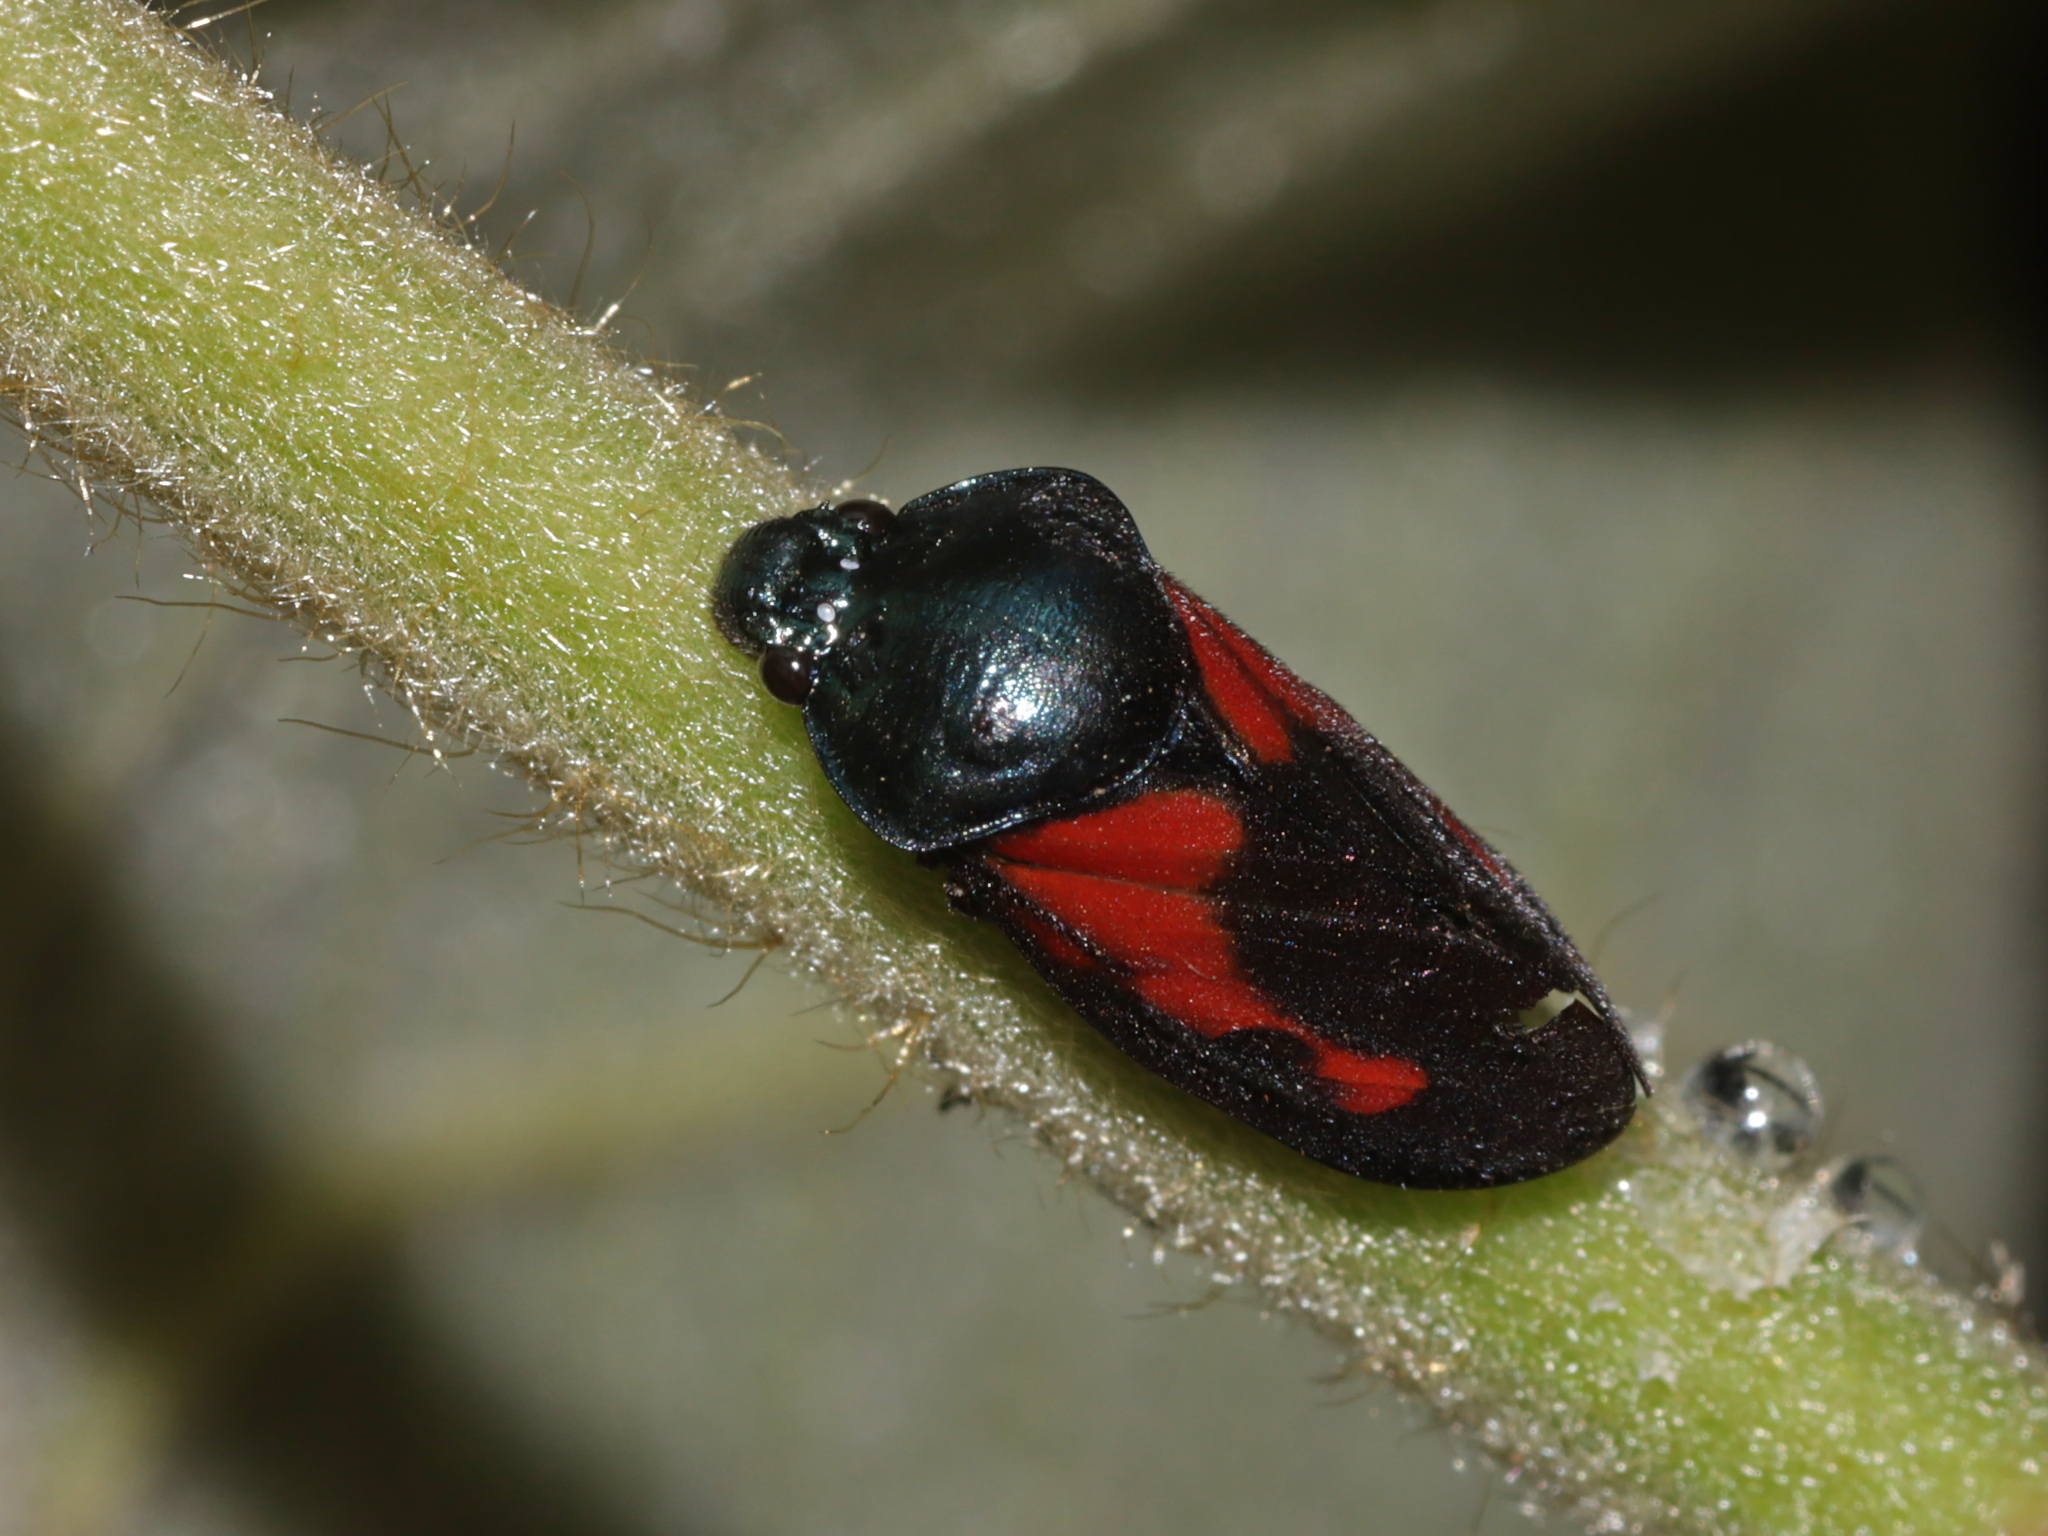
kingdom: Animalia
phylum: Arthropoda
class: Insecta
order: Hemiptera
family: Cercopidae
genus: Cosmoscarta
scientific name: Cosmoscarta gravelyi
